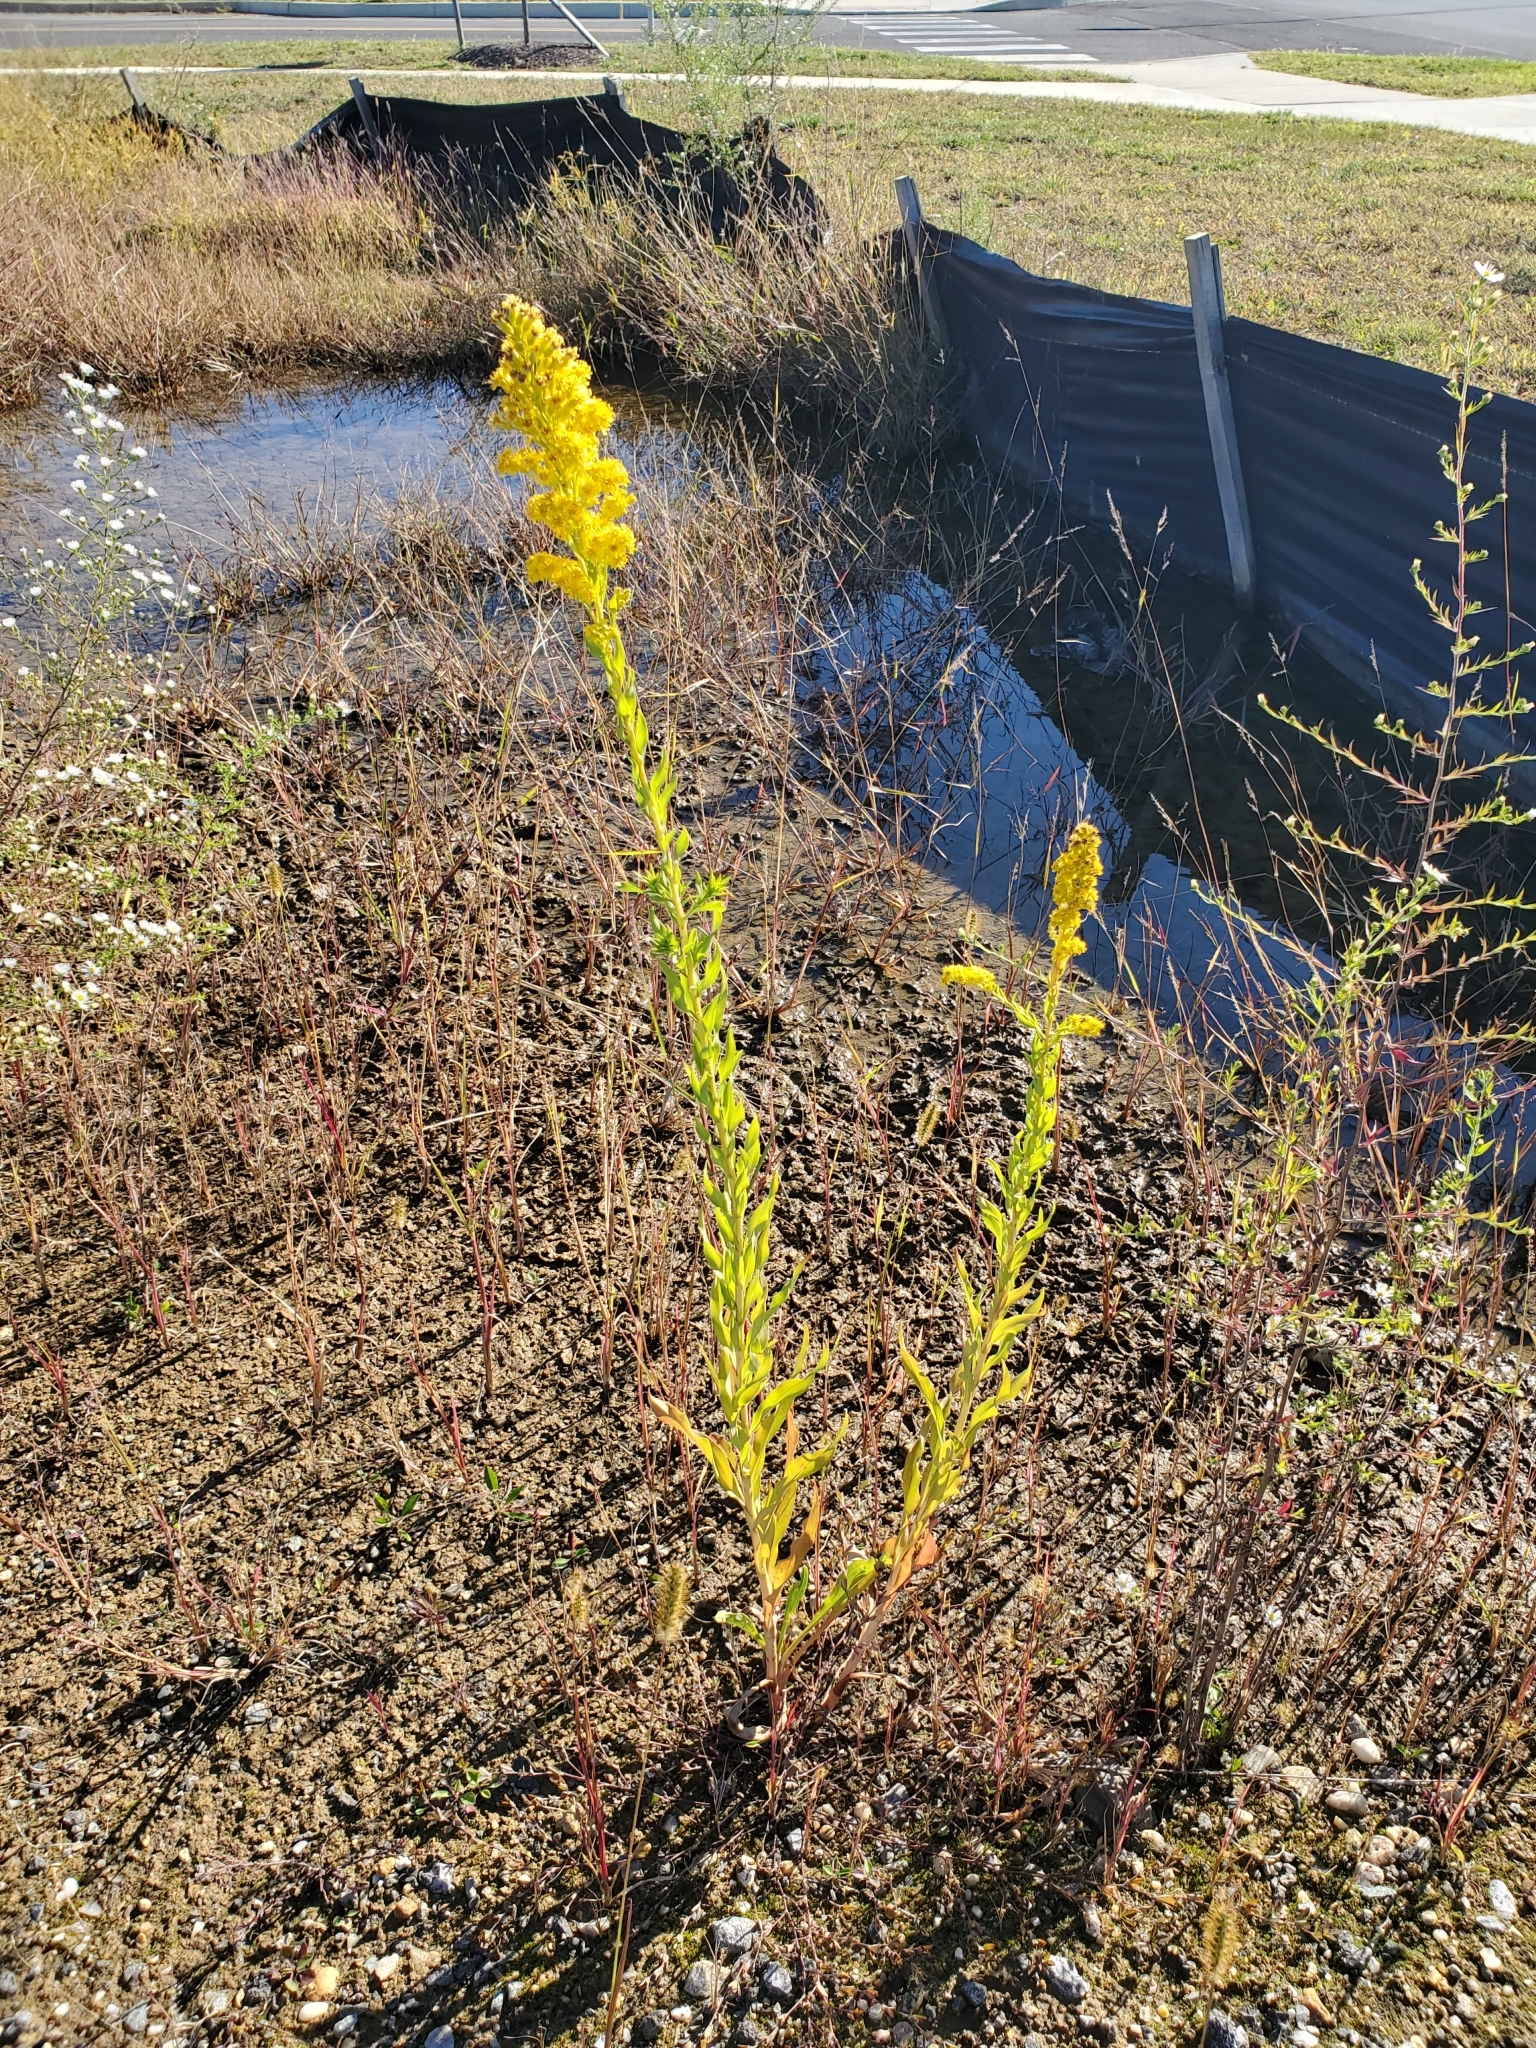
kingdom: Plantae
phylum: Tracheophyta
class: Magnoliopsida
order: Asterales
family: Asteraceae
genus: Solidago
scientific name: Solidago sempervirens
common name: Salt-marsh goldenrod
